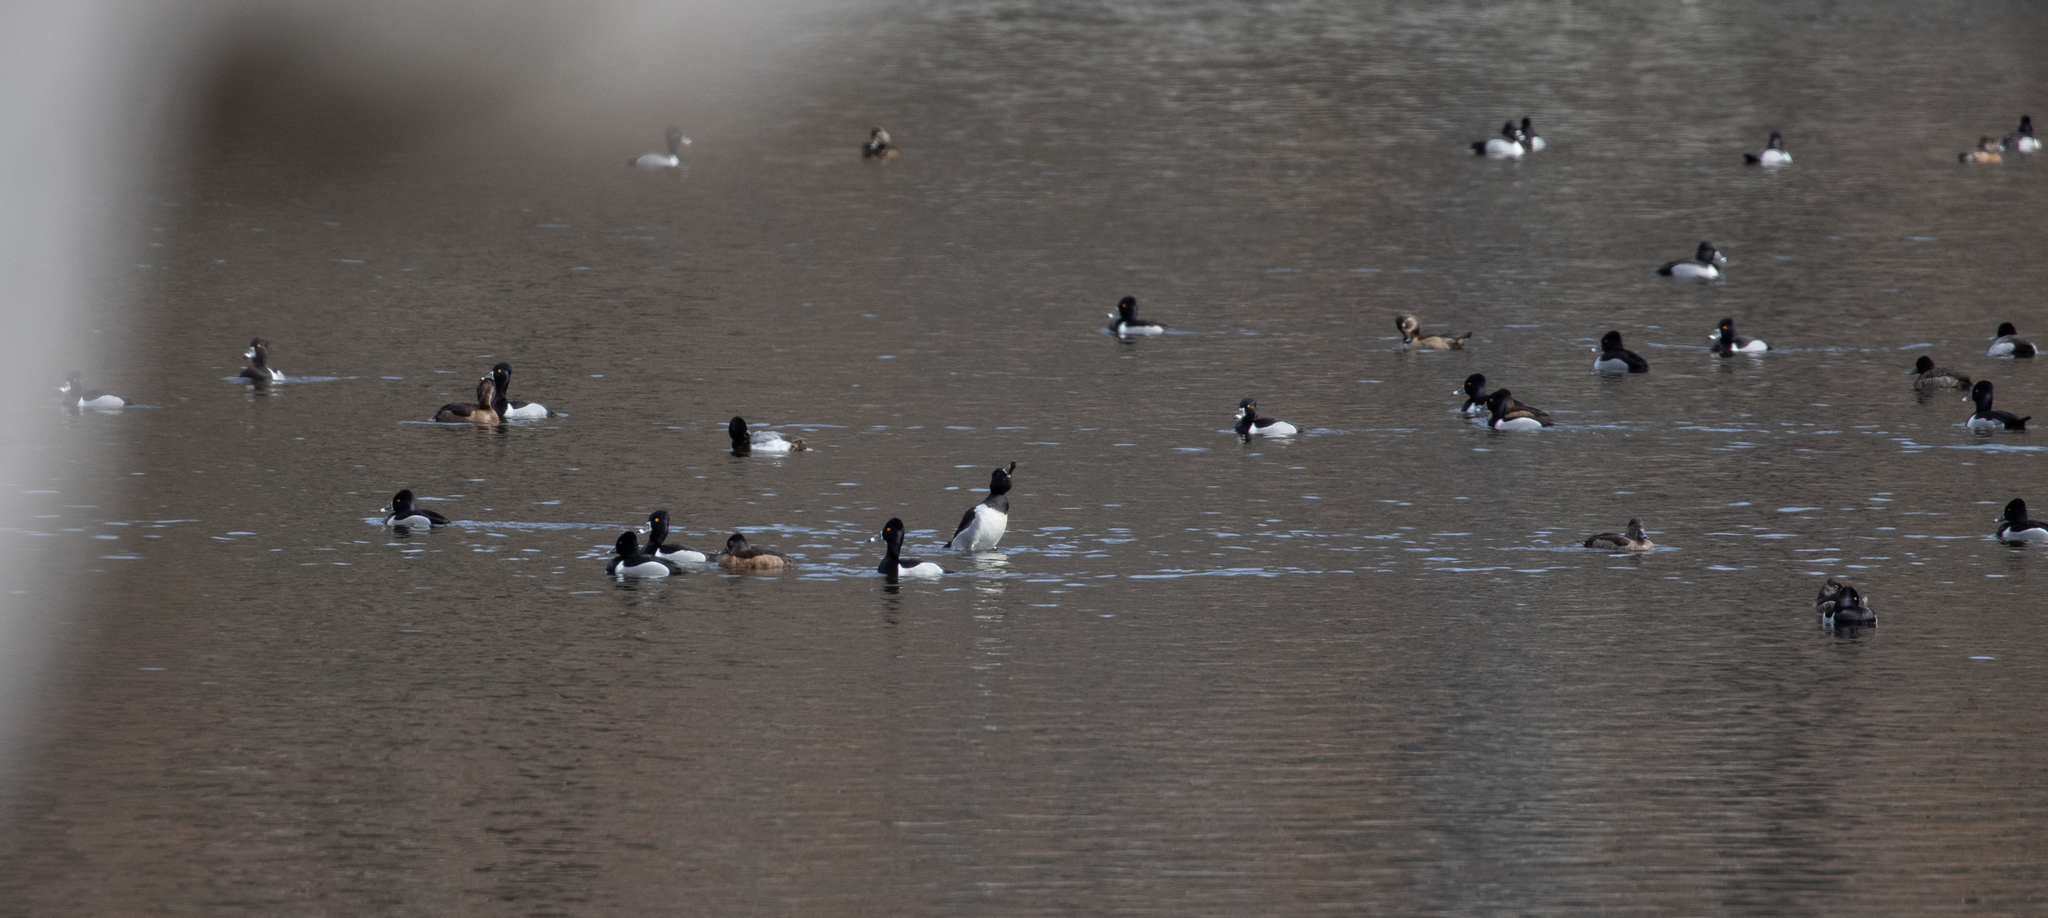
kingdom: Animalia
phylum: Chordata
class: Aves
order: Anseriformes
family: Anatidae
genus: Aythya
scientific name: Aythya collaris
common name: Ring-necked duck
